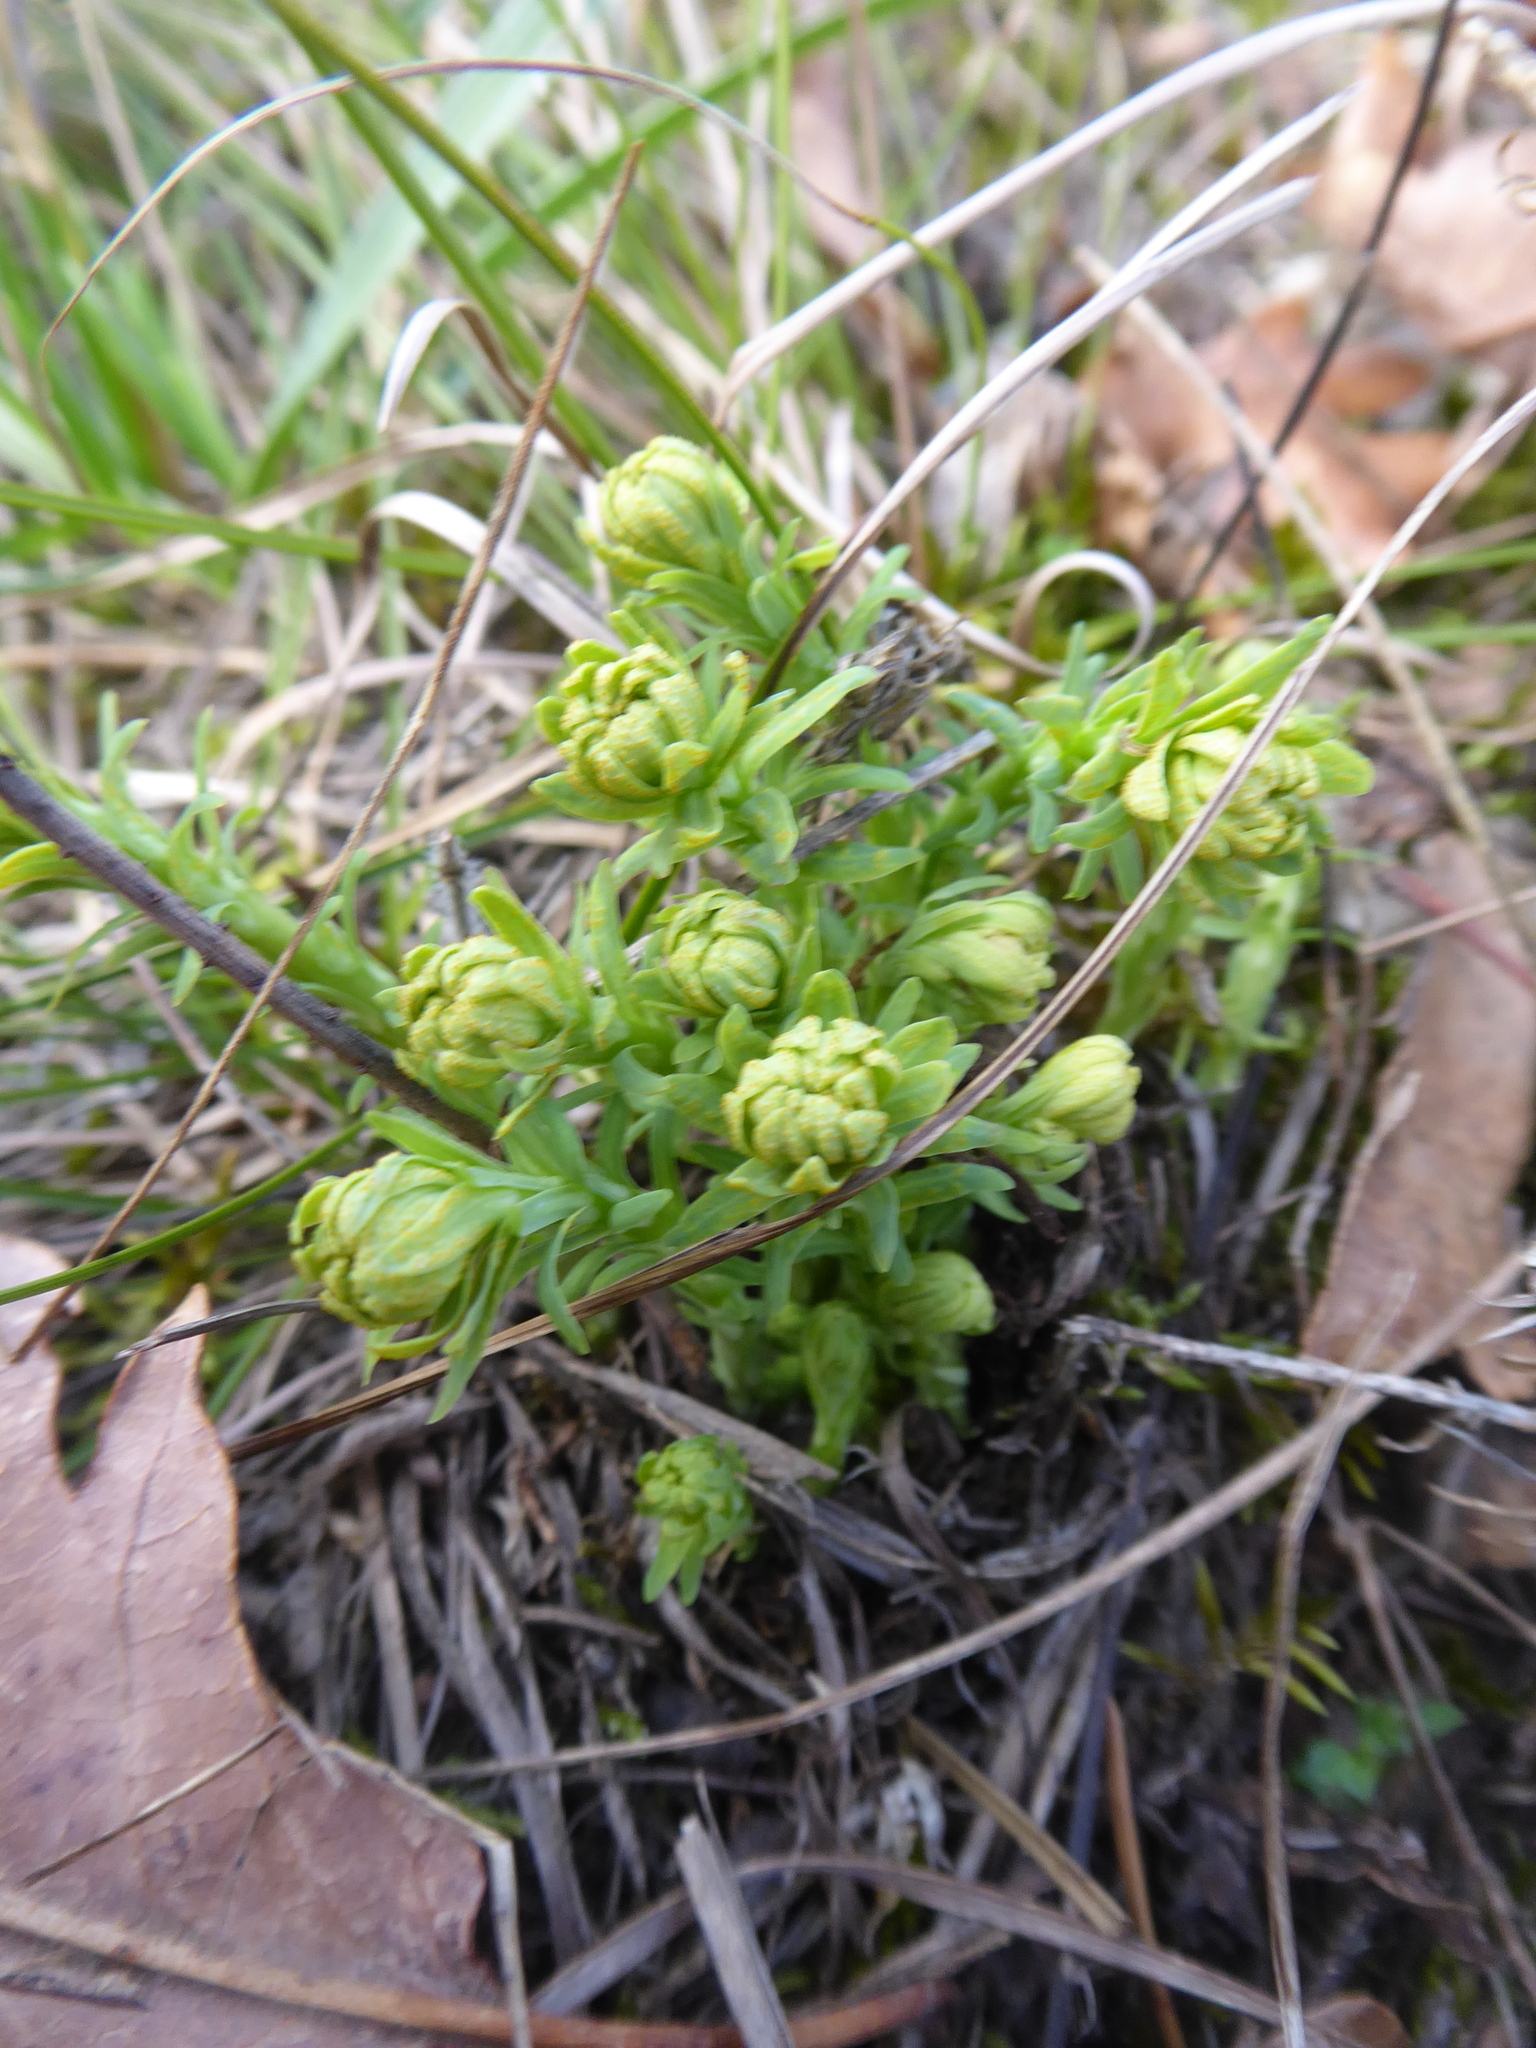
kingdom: Plantae
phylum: Tracheophyta
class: Magnoliopsida
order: Malpighiales
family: Euphorbiaceae
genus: Euphorbia
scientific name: Euphorbia cyparissias
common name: Cypress spurge
